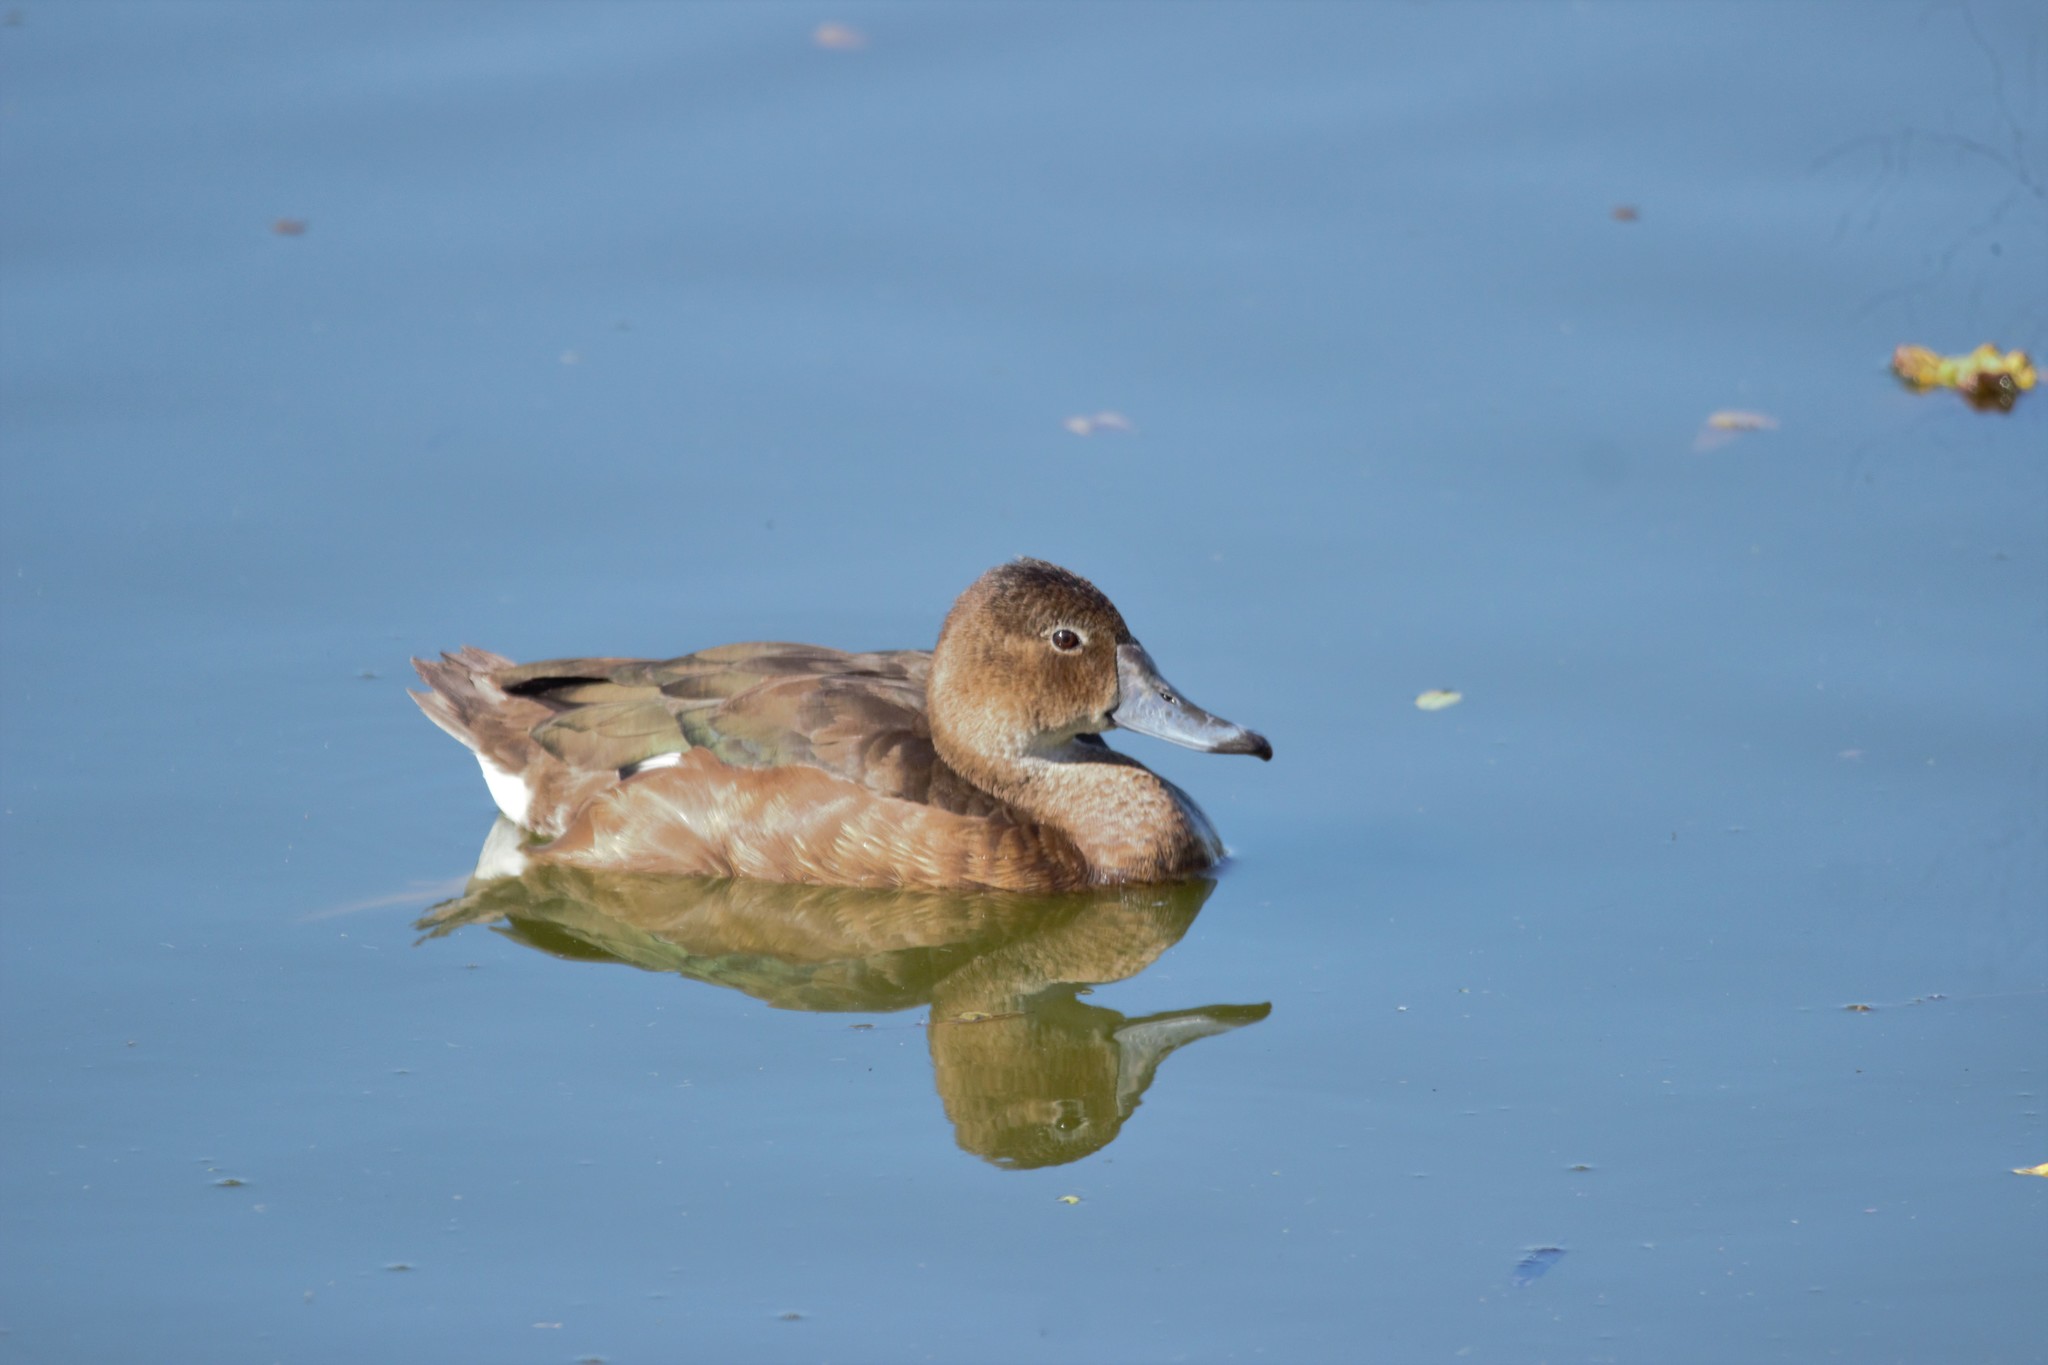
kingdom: Animalia
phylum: Chordata
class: Aves
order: Anseriformes
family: Anatidae
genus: Netta
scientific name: Netta peposaca
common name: Rosy-billed pochard
